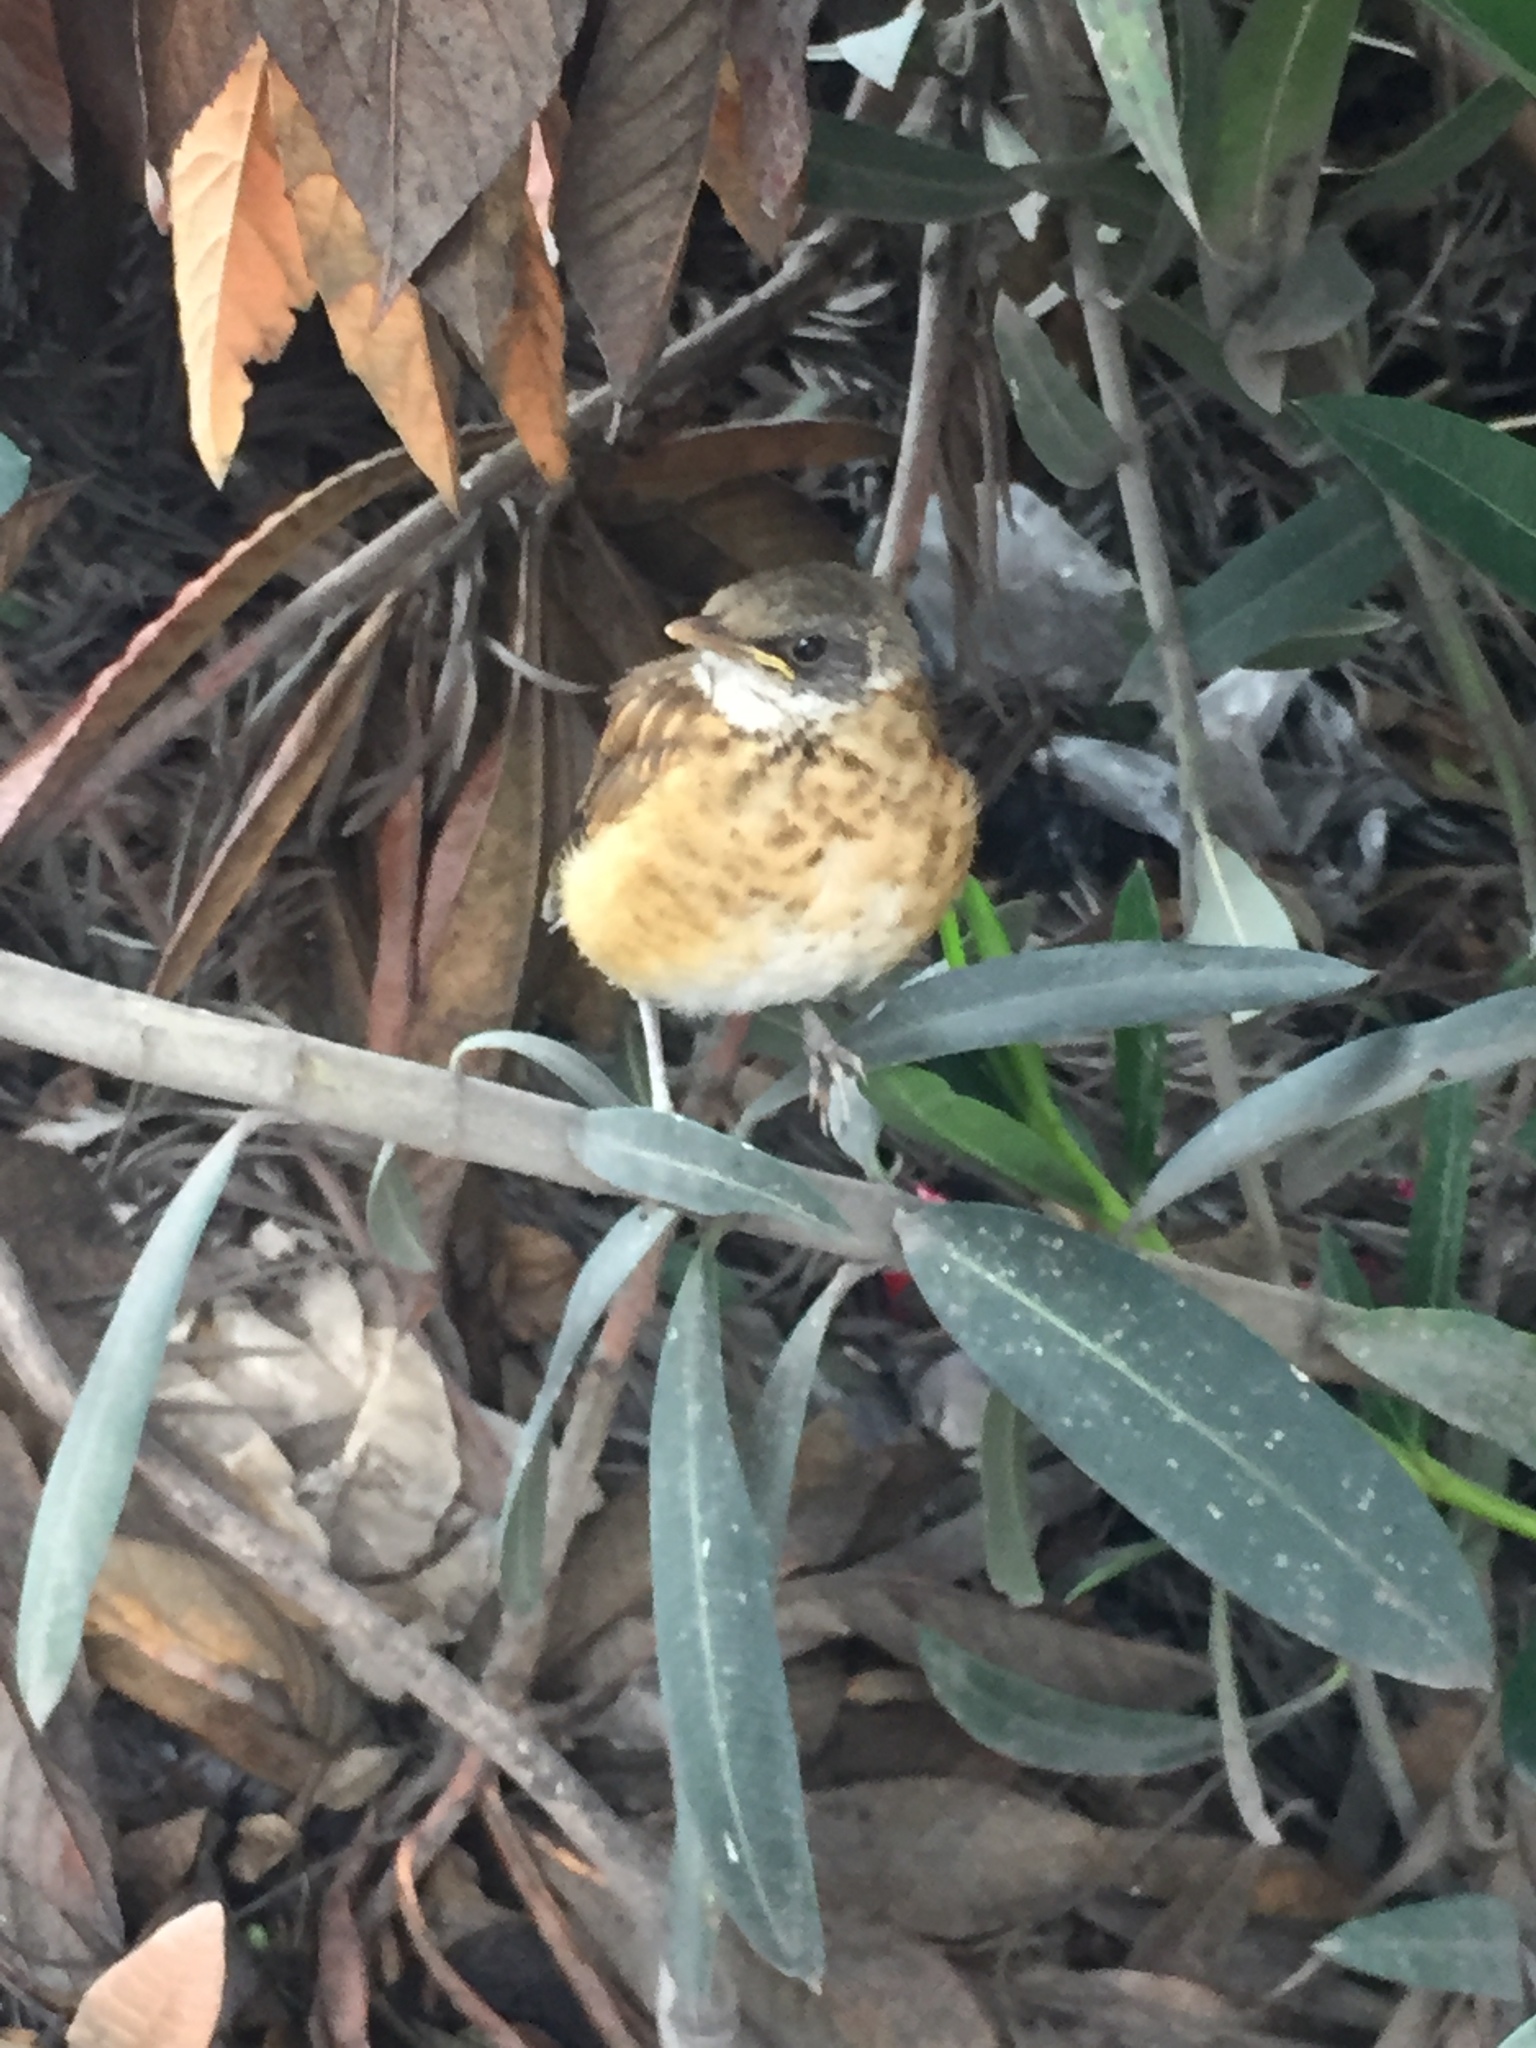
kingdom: Animalia
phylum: Chordata
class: Aves
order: Passeriformes
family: Turdidae
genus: Turdus
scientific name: Turdus rufopalliatus
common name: Rufous-backed robin
